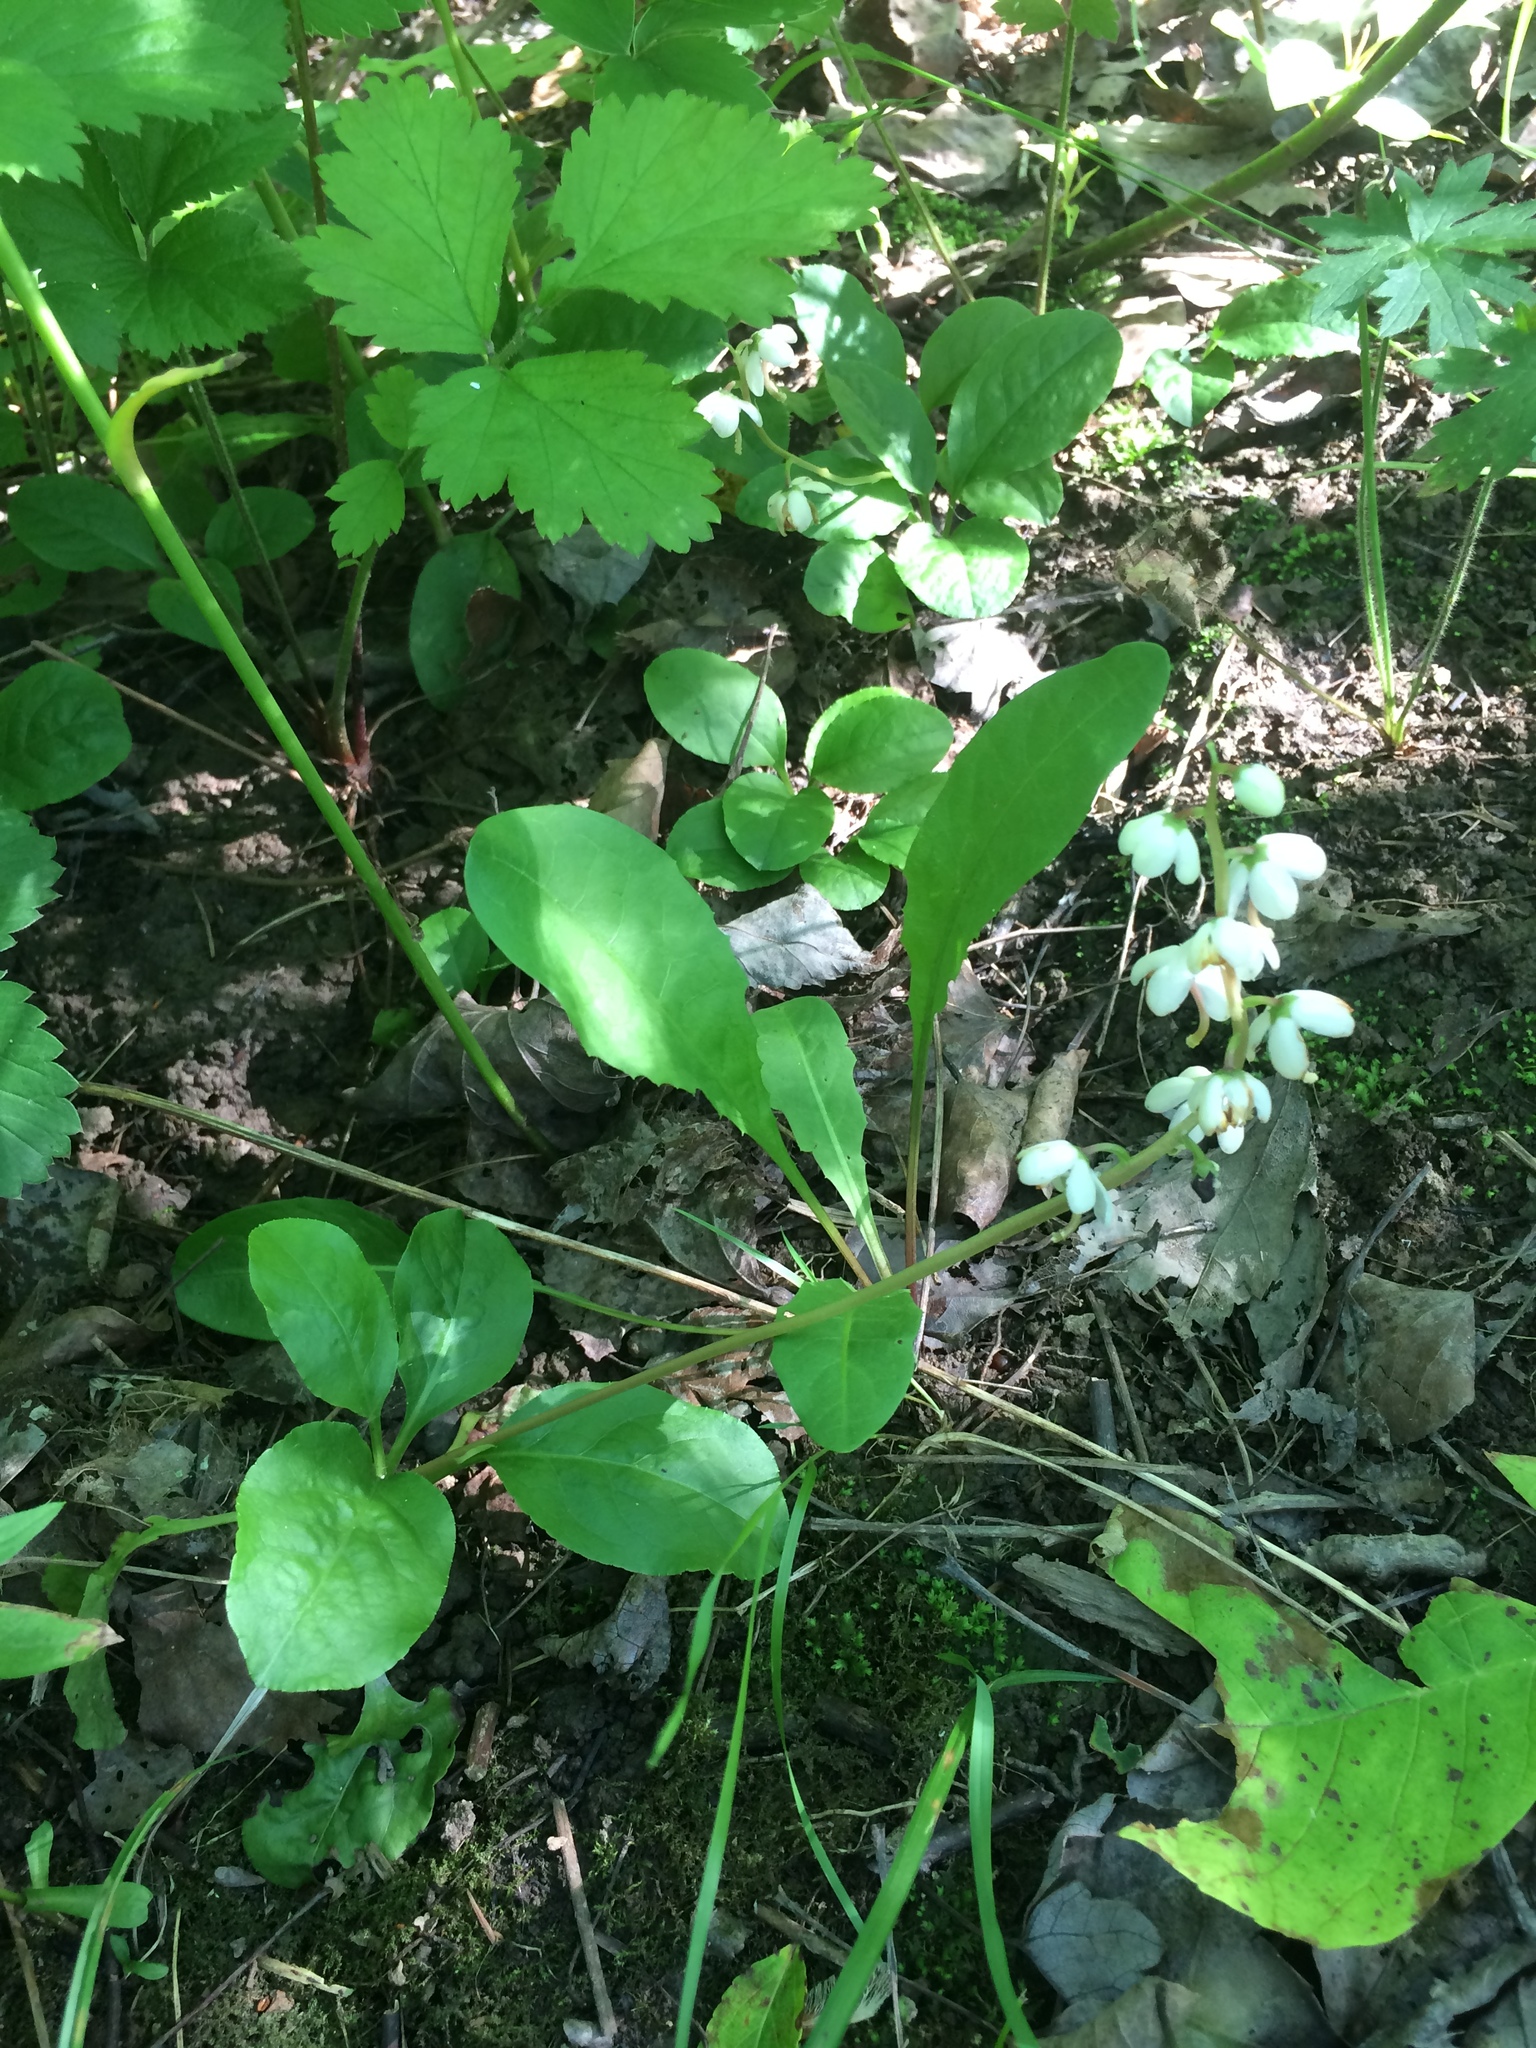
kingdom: Plantae
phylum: Tracheophyta
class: Magnoliopsida
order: Ericales
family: Ericaceae
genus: Pyrola
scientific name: Pyrola elliptica
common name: Shinleaf
